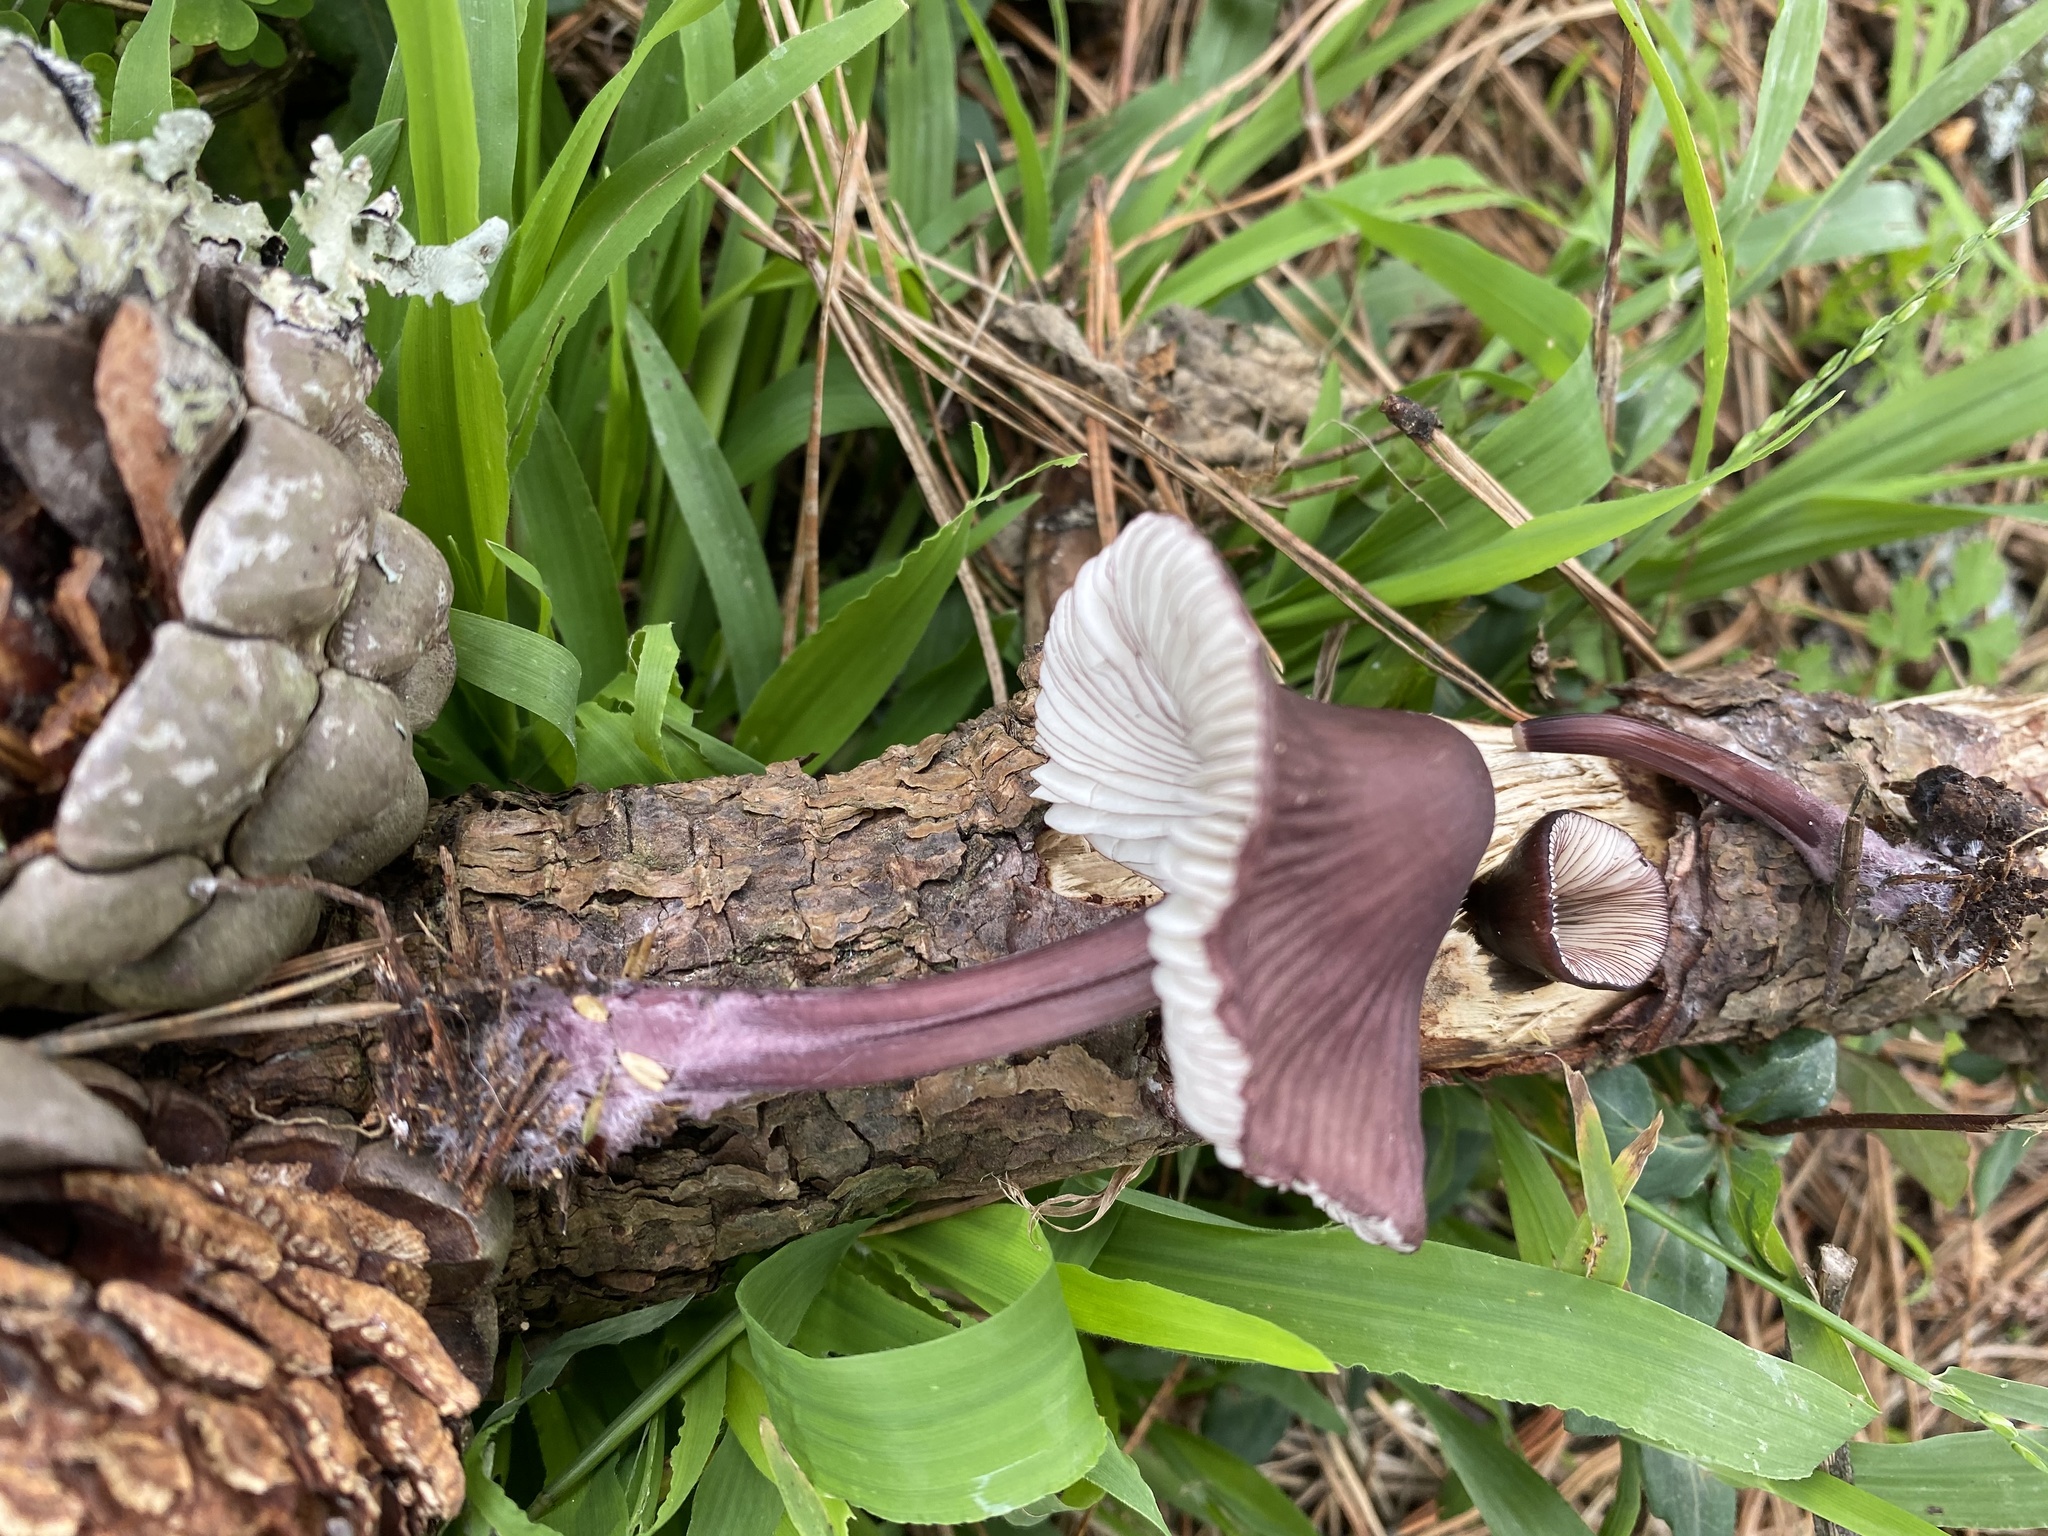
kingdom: Fungi
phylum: Basidiomycota
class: Agaricomycetes
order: Agaricales
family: Mycenaceae
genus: Mycena
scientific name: Mycena purpureofusca
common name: Purple edge bonnet
